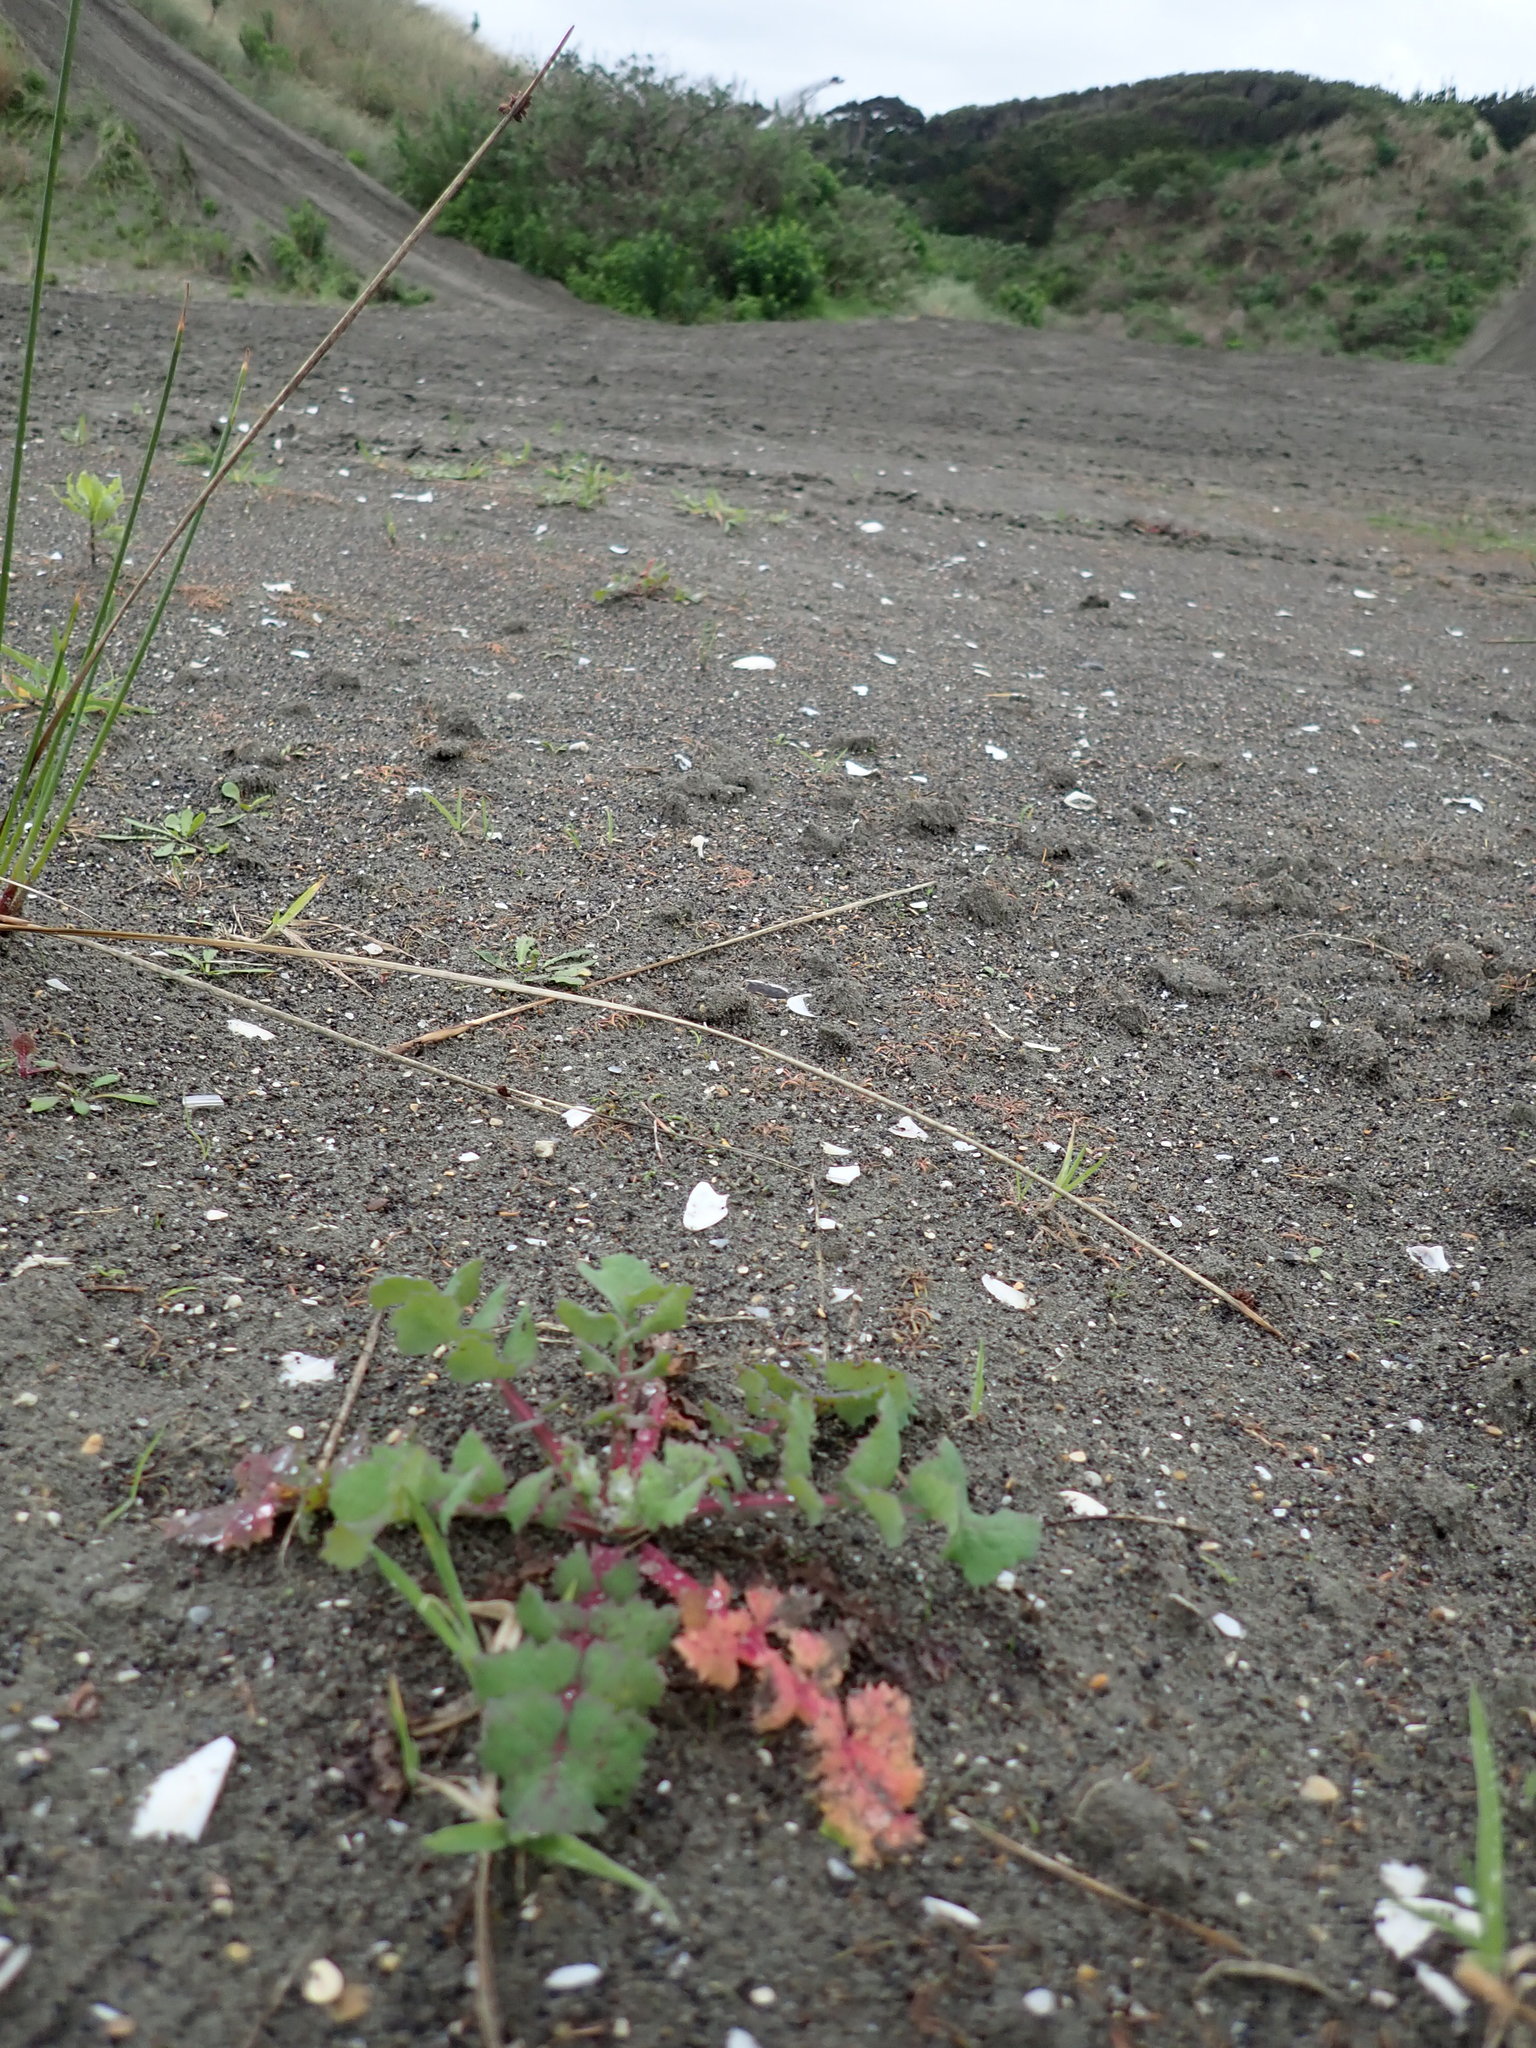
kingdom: Plantae
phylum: Tracheophyta
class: Magnoliopsida
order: Asterales
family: Asteraceae
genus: Sonchus
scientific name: Sonchus oleraceus
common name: Common sowthistle
